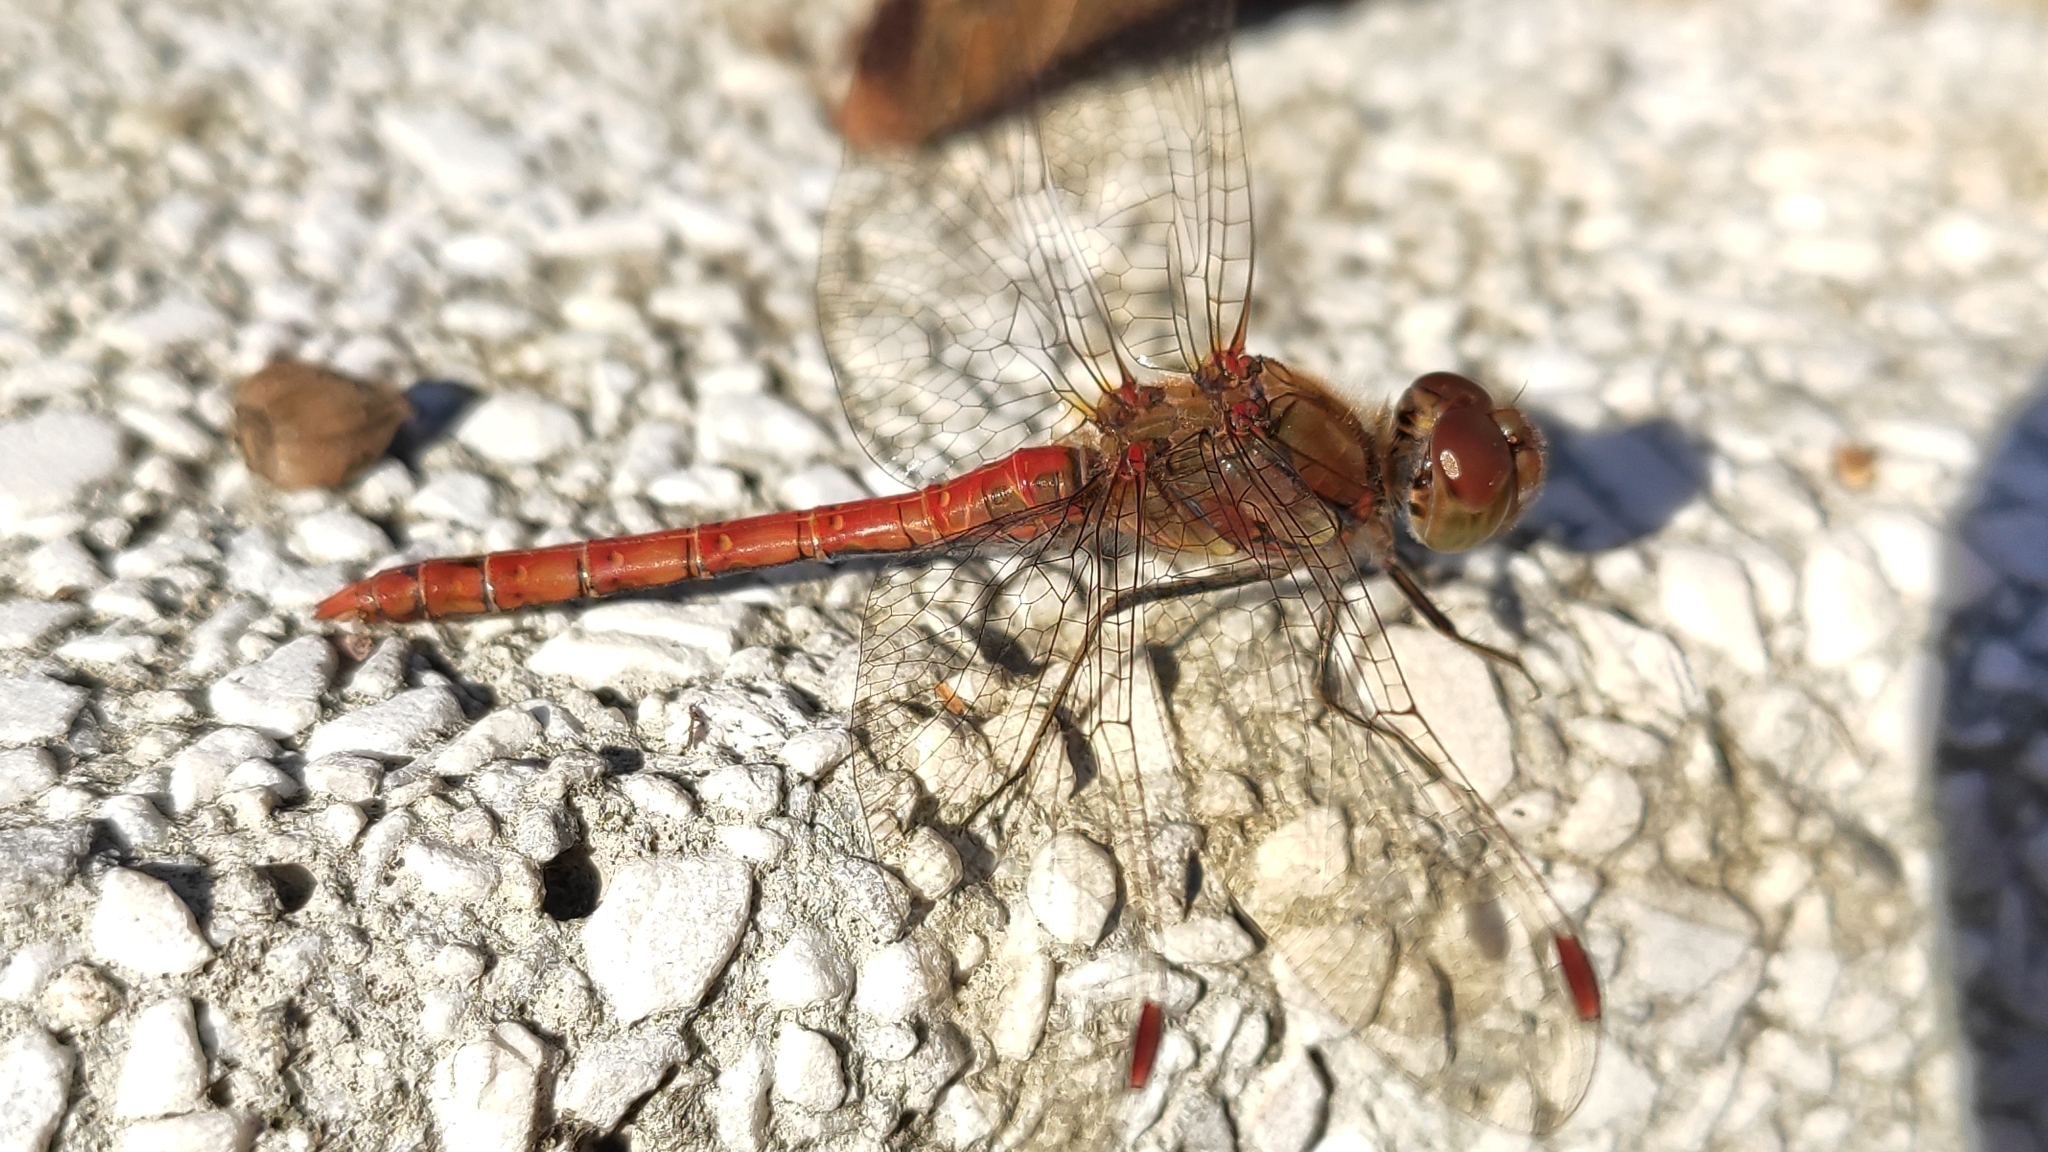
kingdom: Animalia
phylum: Arthropoda
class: Insecta
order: Odonata
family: Libellulidae
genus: Sympetrum
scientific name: Sympetrum striolatum
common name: Common darter
